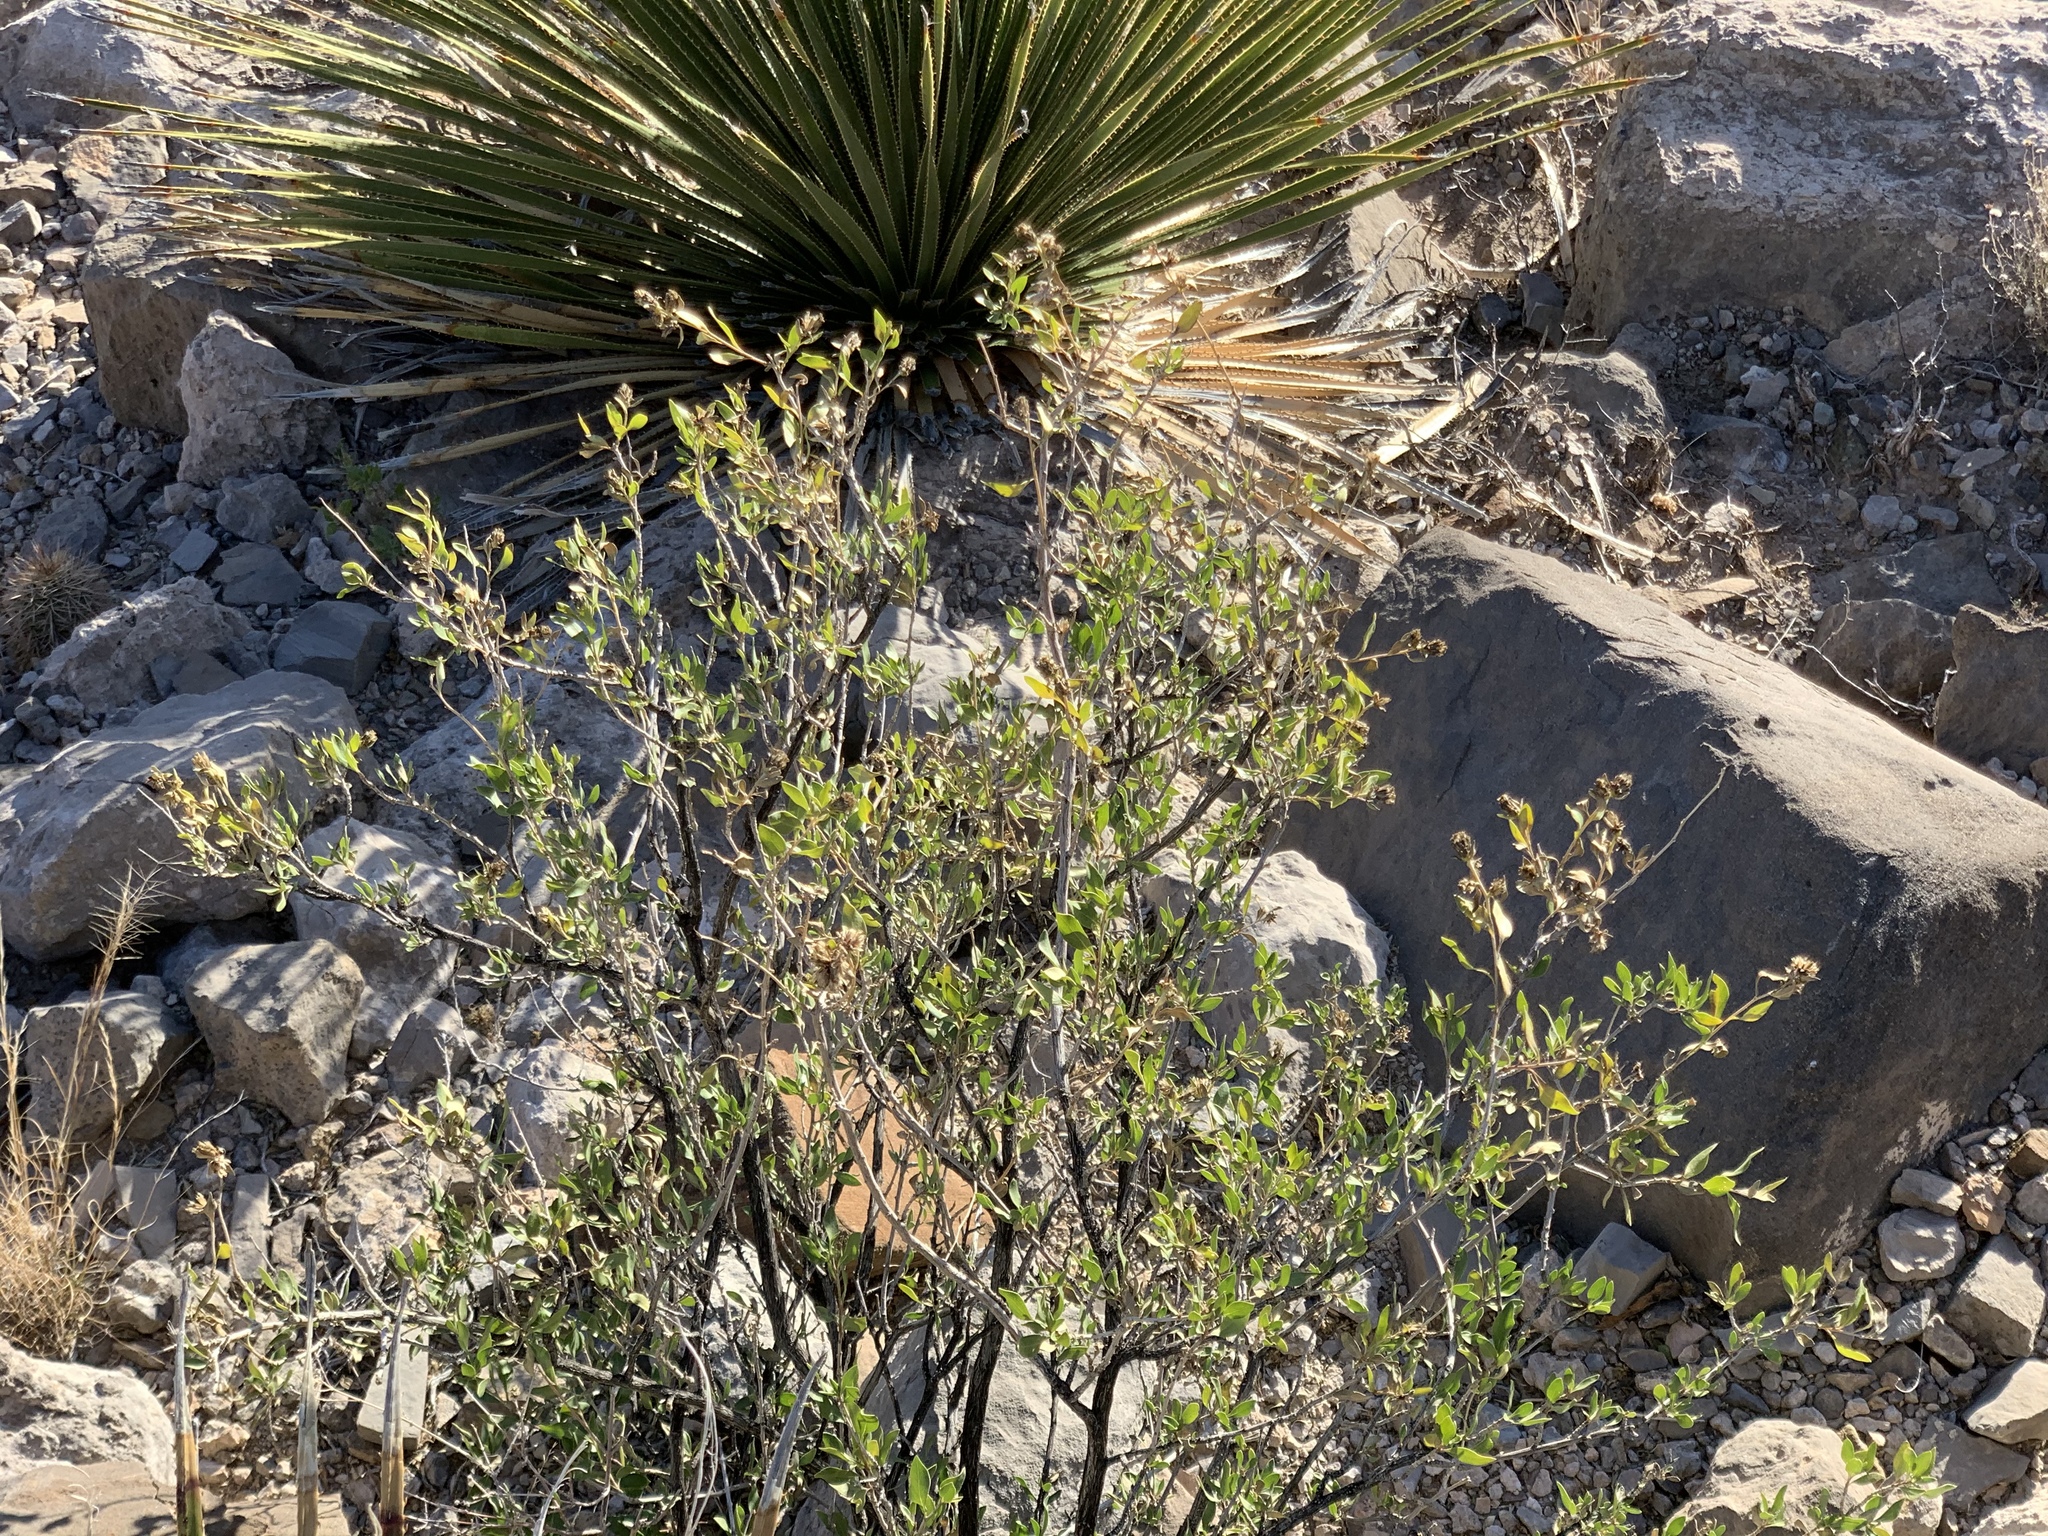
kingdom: Plantae
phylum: Tracheophyta
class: Magnoliopsida
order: Asterales
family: Asteraceae
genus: Flourensia
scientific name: Flourensia cernua
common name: Varnishbush
